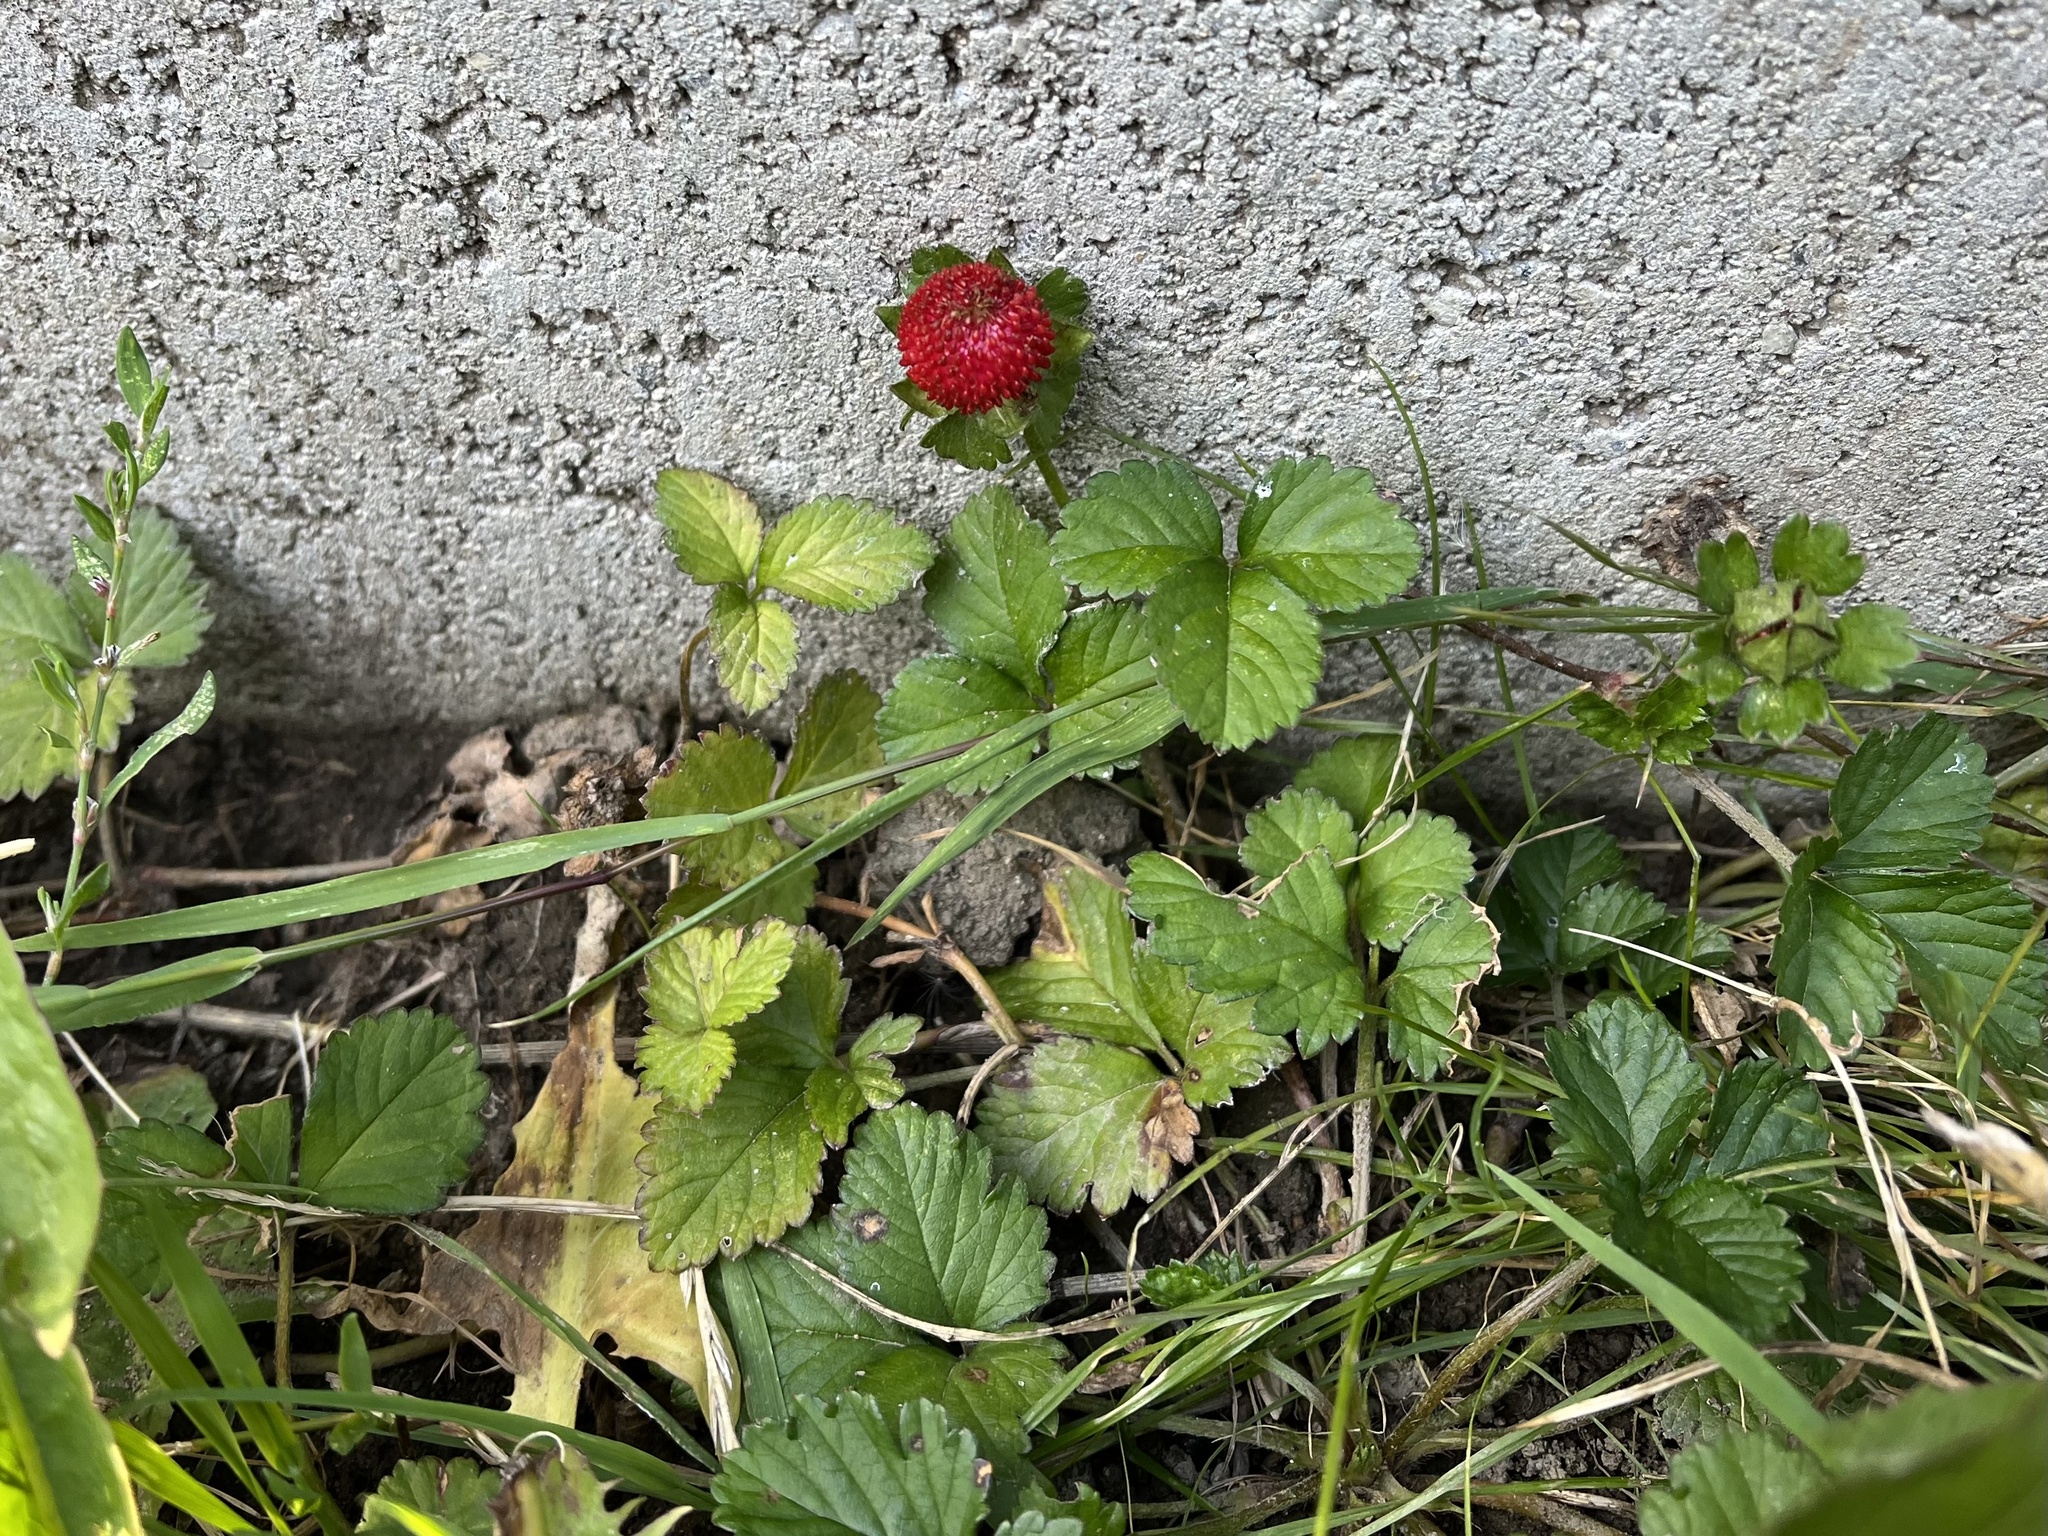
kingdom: Plantae
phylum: Tracheophyta
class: Magnoliopsida
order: Rosales
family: Rosaceae
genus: Potentilla
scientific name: Potentilla indica
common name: Yellow-flowered strawberry
